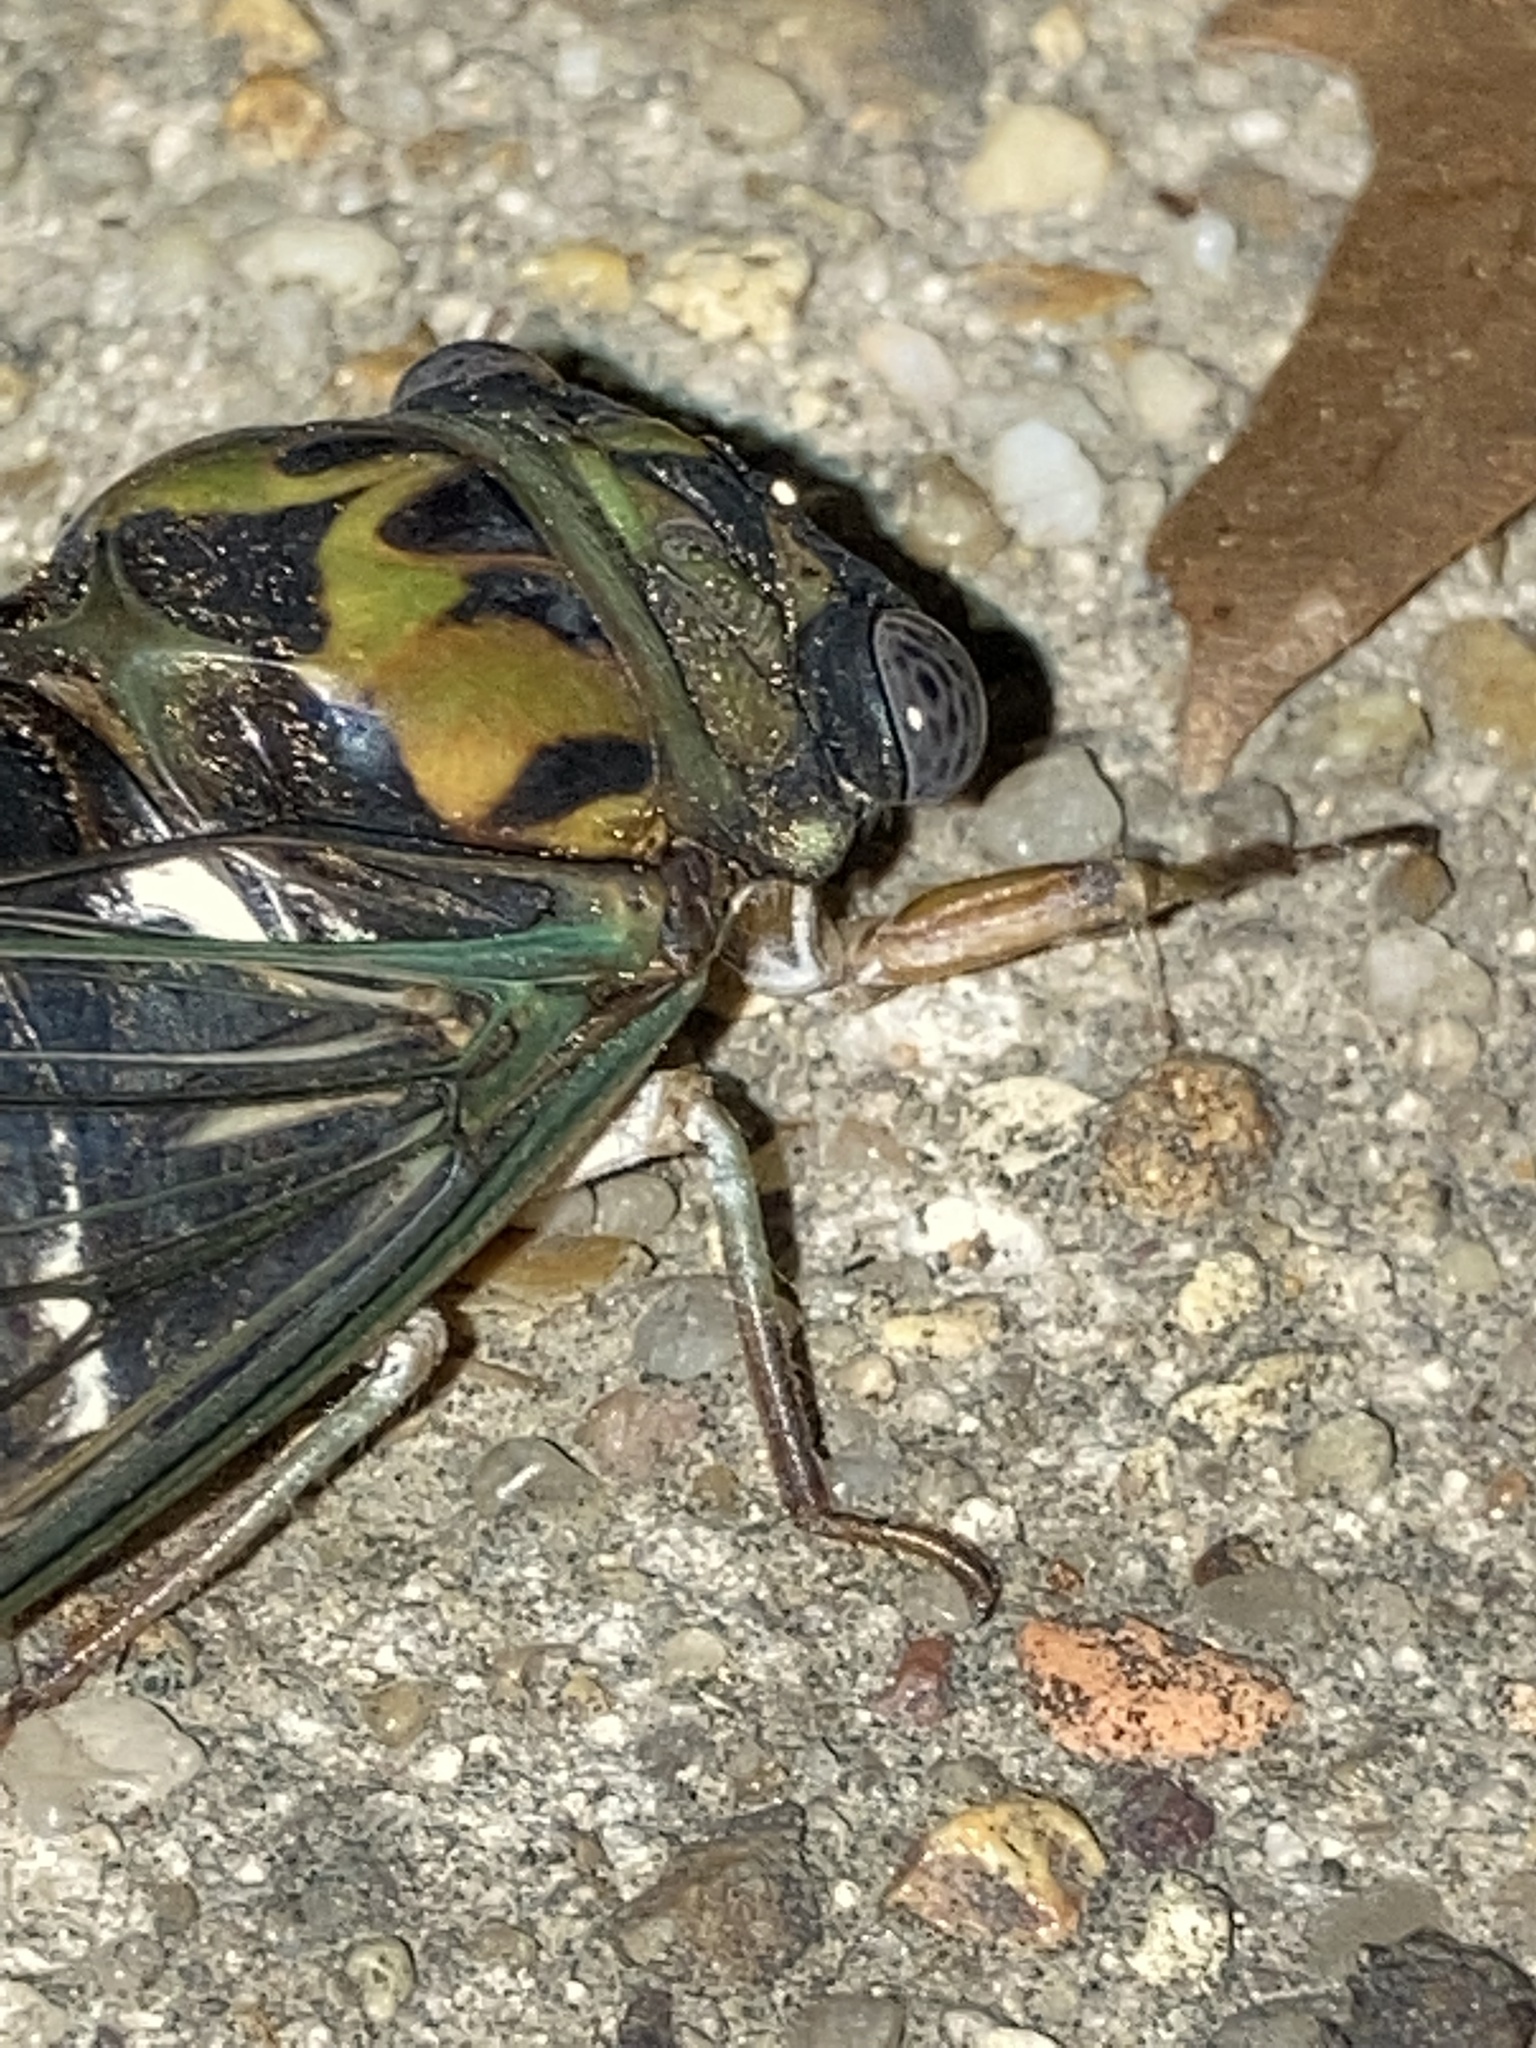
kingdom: Animalia
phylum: Arthropoda
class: Insecta
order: Hemiptera
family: Cicadidae
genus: Neotibicen
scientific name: Neotibicen pruinosus
